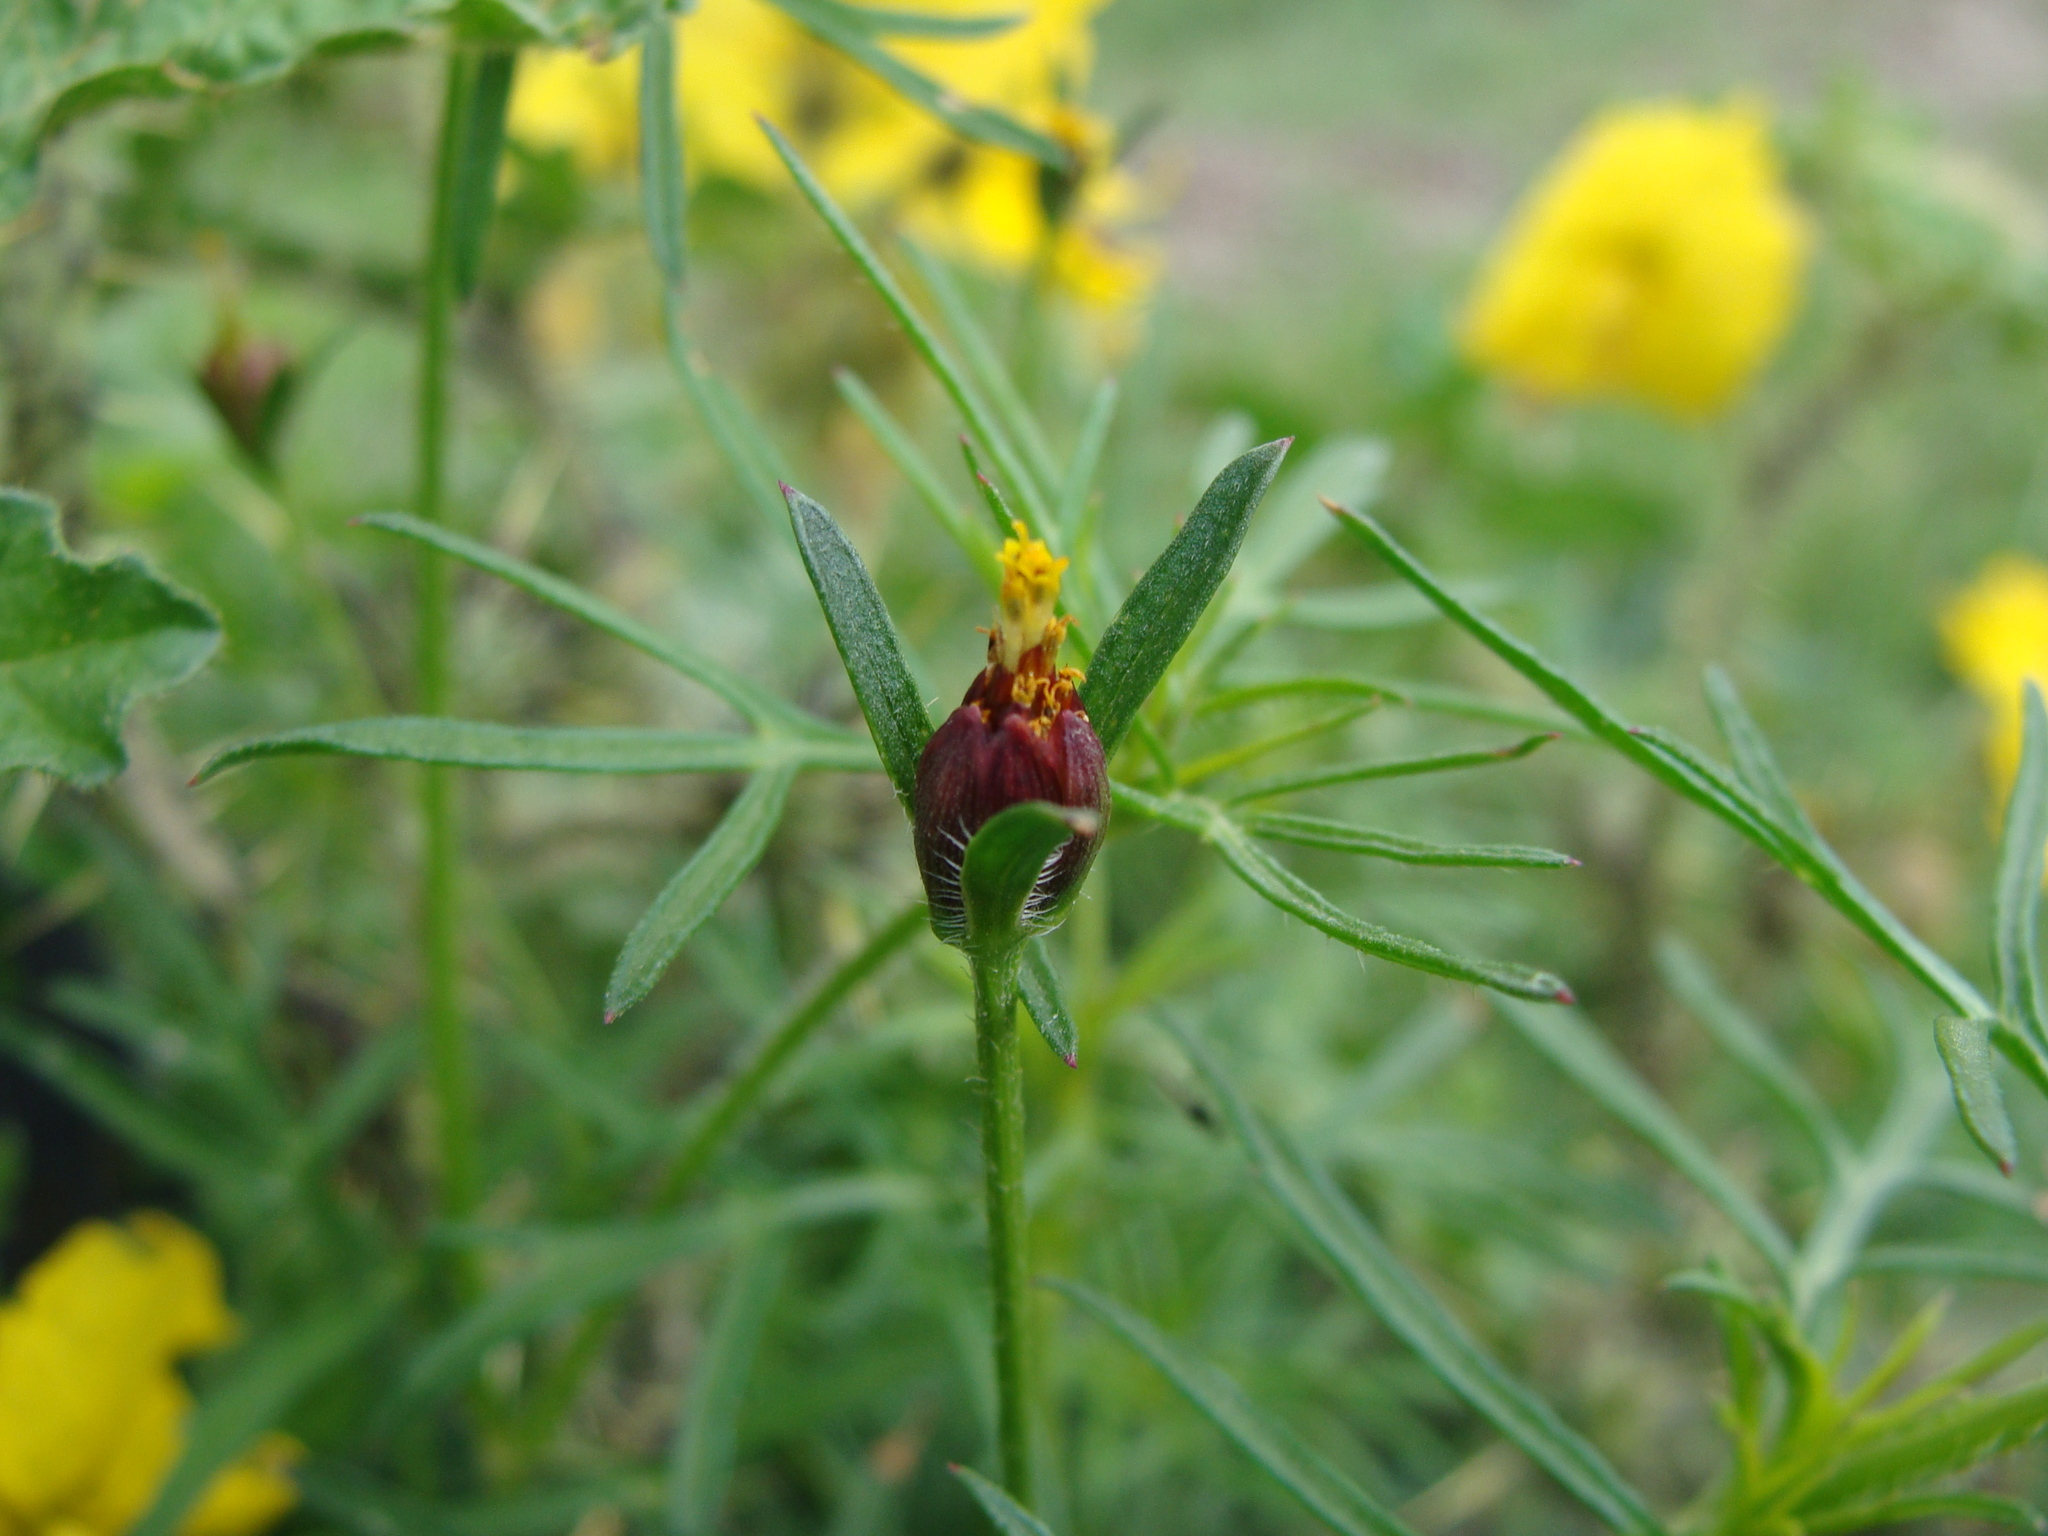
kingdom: Plantae
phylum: Tracheophyta
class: Magnoliopsida
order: Asterales
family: Asteraceae
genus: Heterosperma
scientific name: Heterosperma pinnatum
